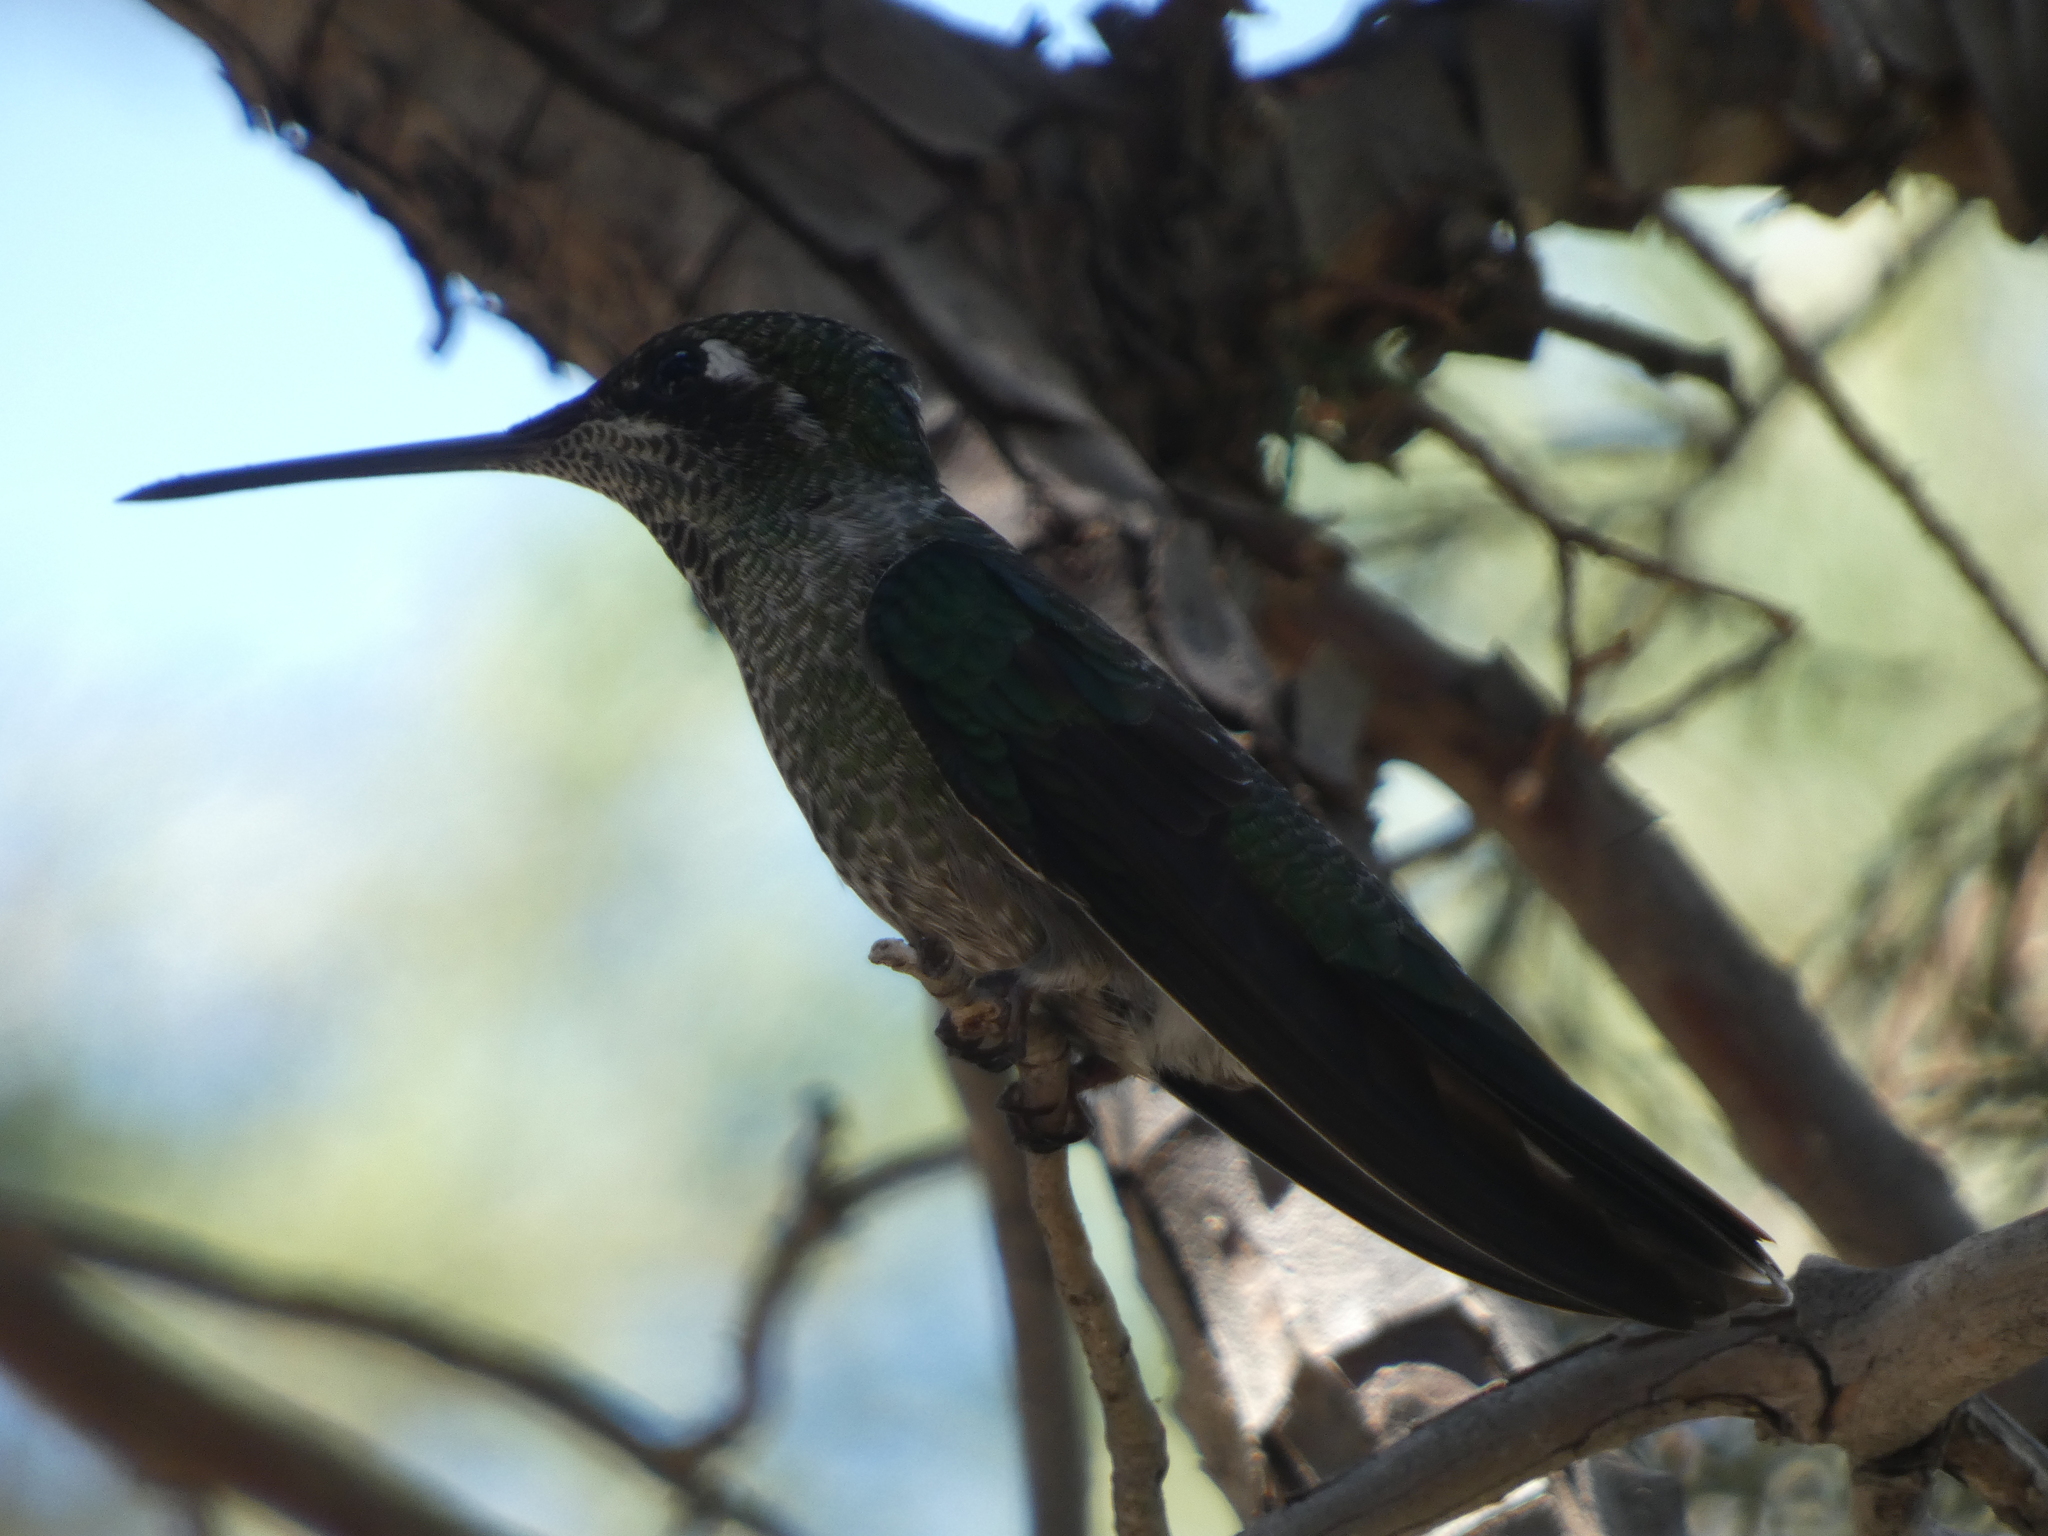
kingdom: Animalia
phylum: Chordata
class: Aves
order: Apodiformes
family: Trochilidae
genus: Eugenes
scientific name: Eugenes fulgens
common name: Magnificent hummingbird
